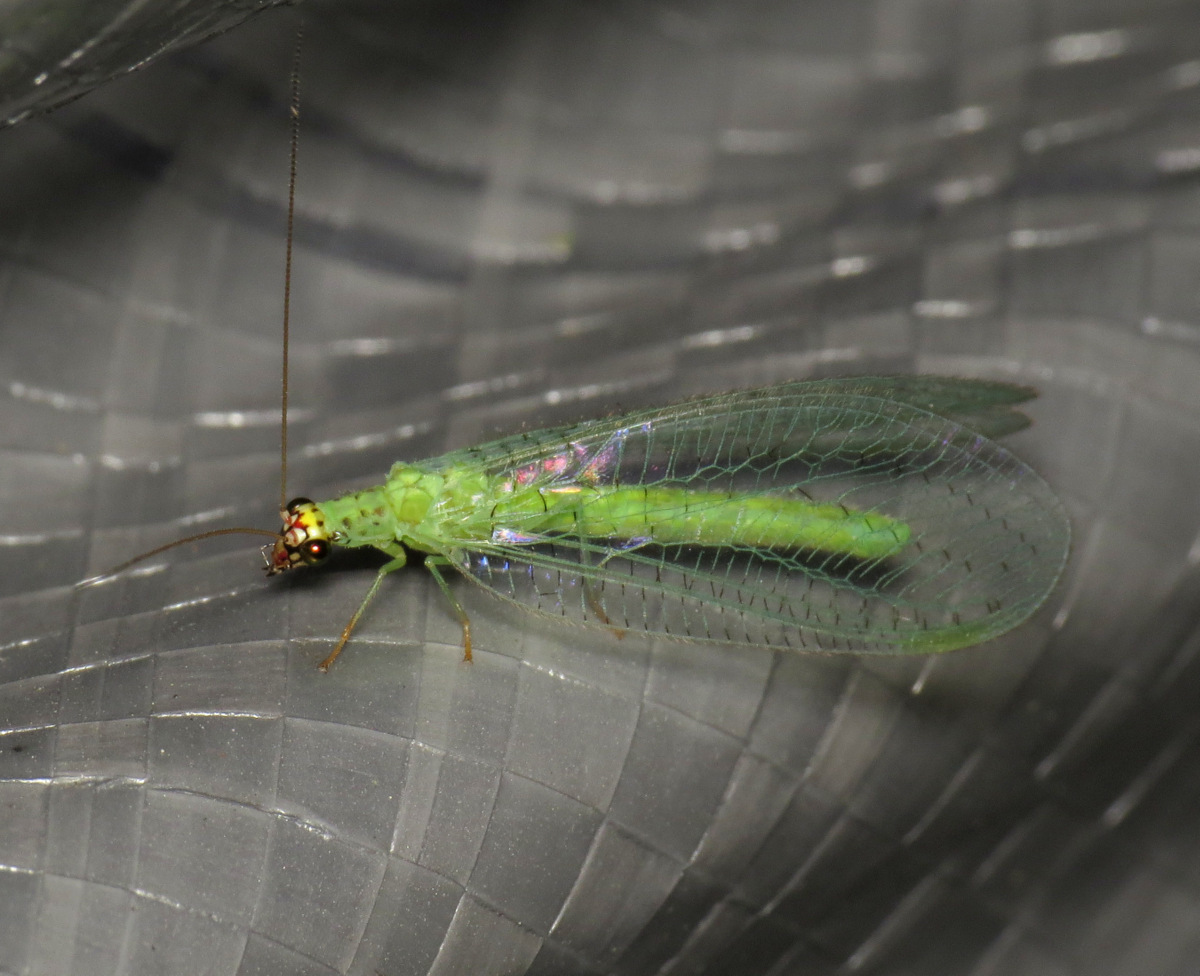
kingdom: Animalia
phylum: Arthropoda
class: Insecta
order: Neuroptera
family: Chrysopidae
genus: Chrysopa
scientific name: Chrysopa oculata
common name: Golden-eyed lacewing
